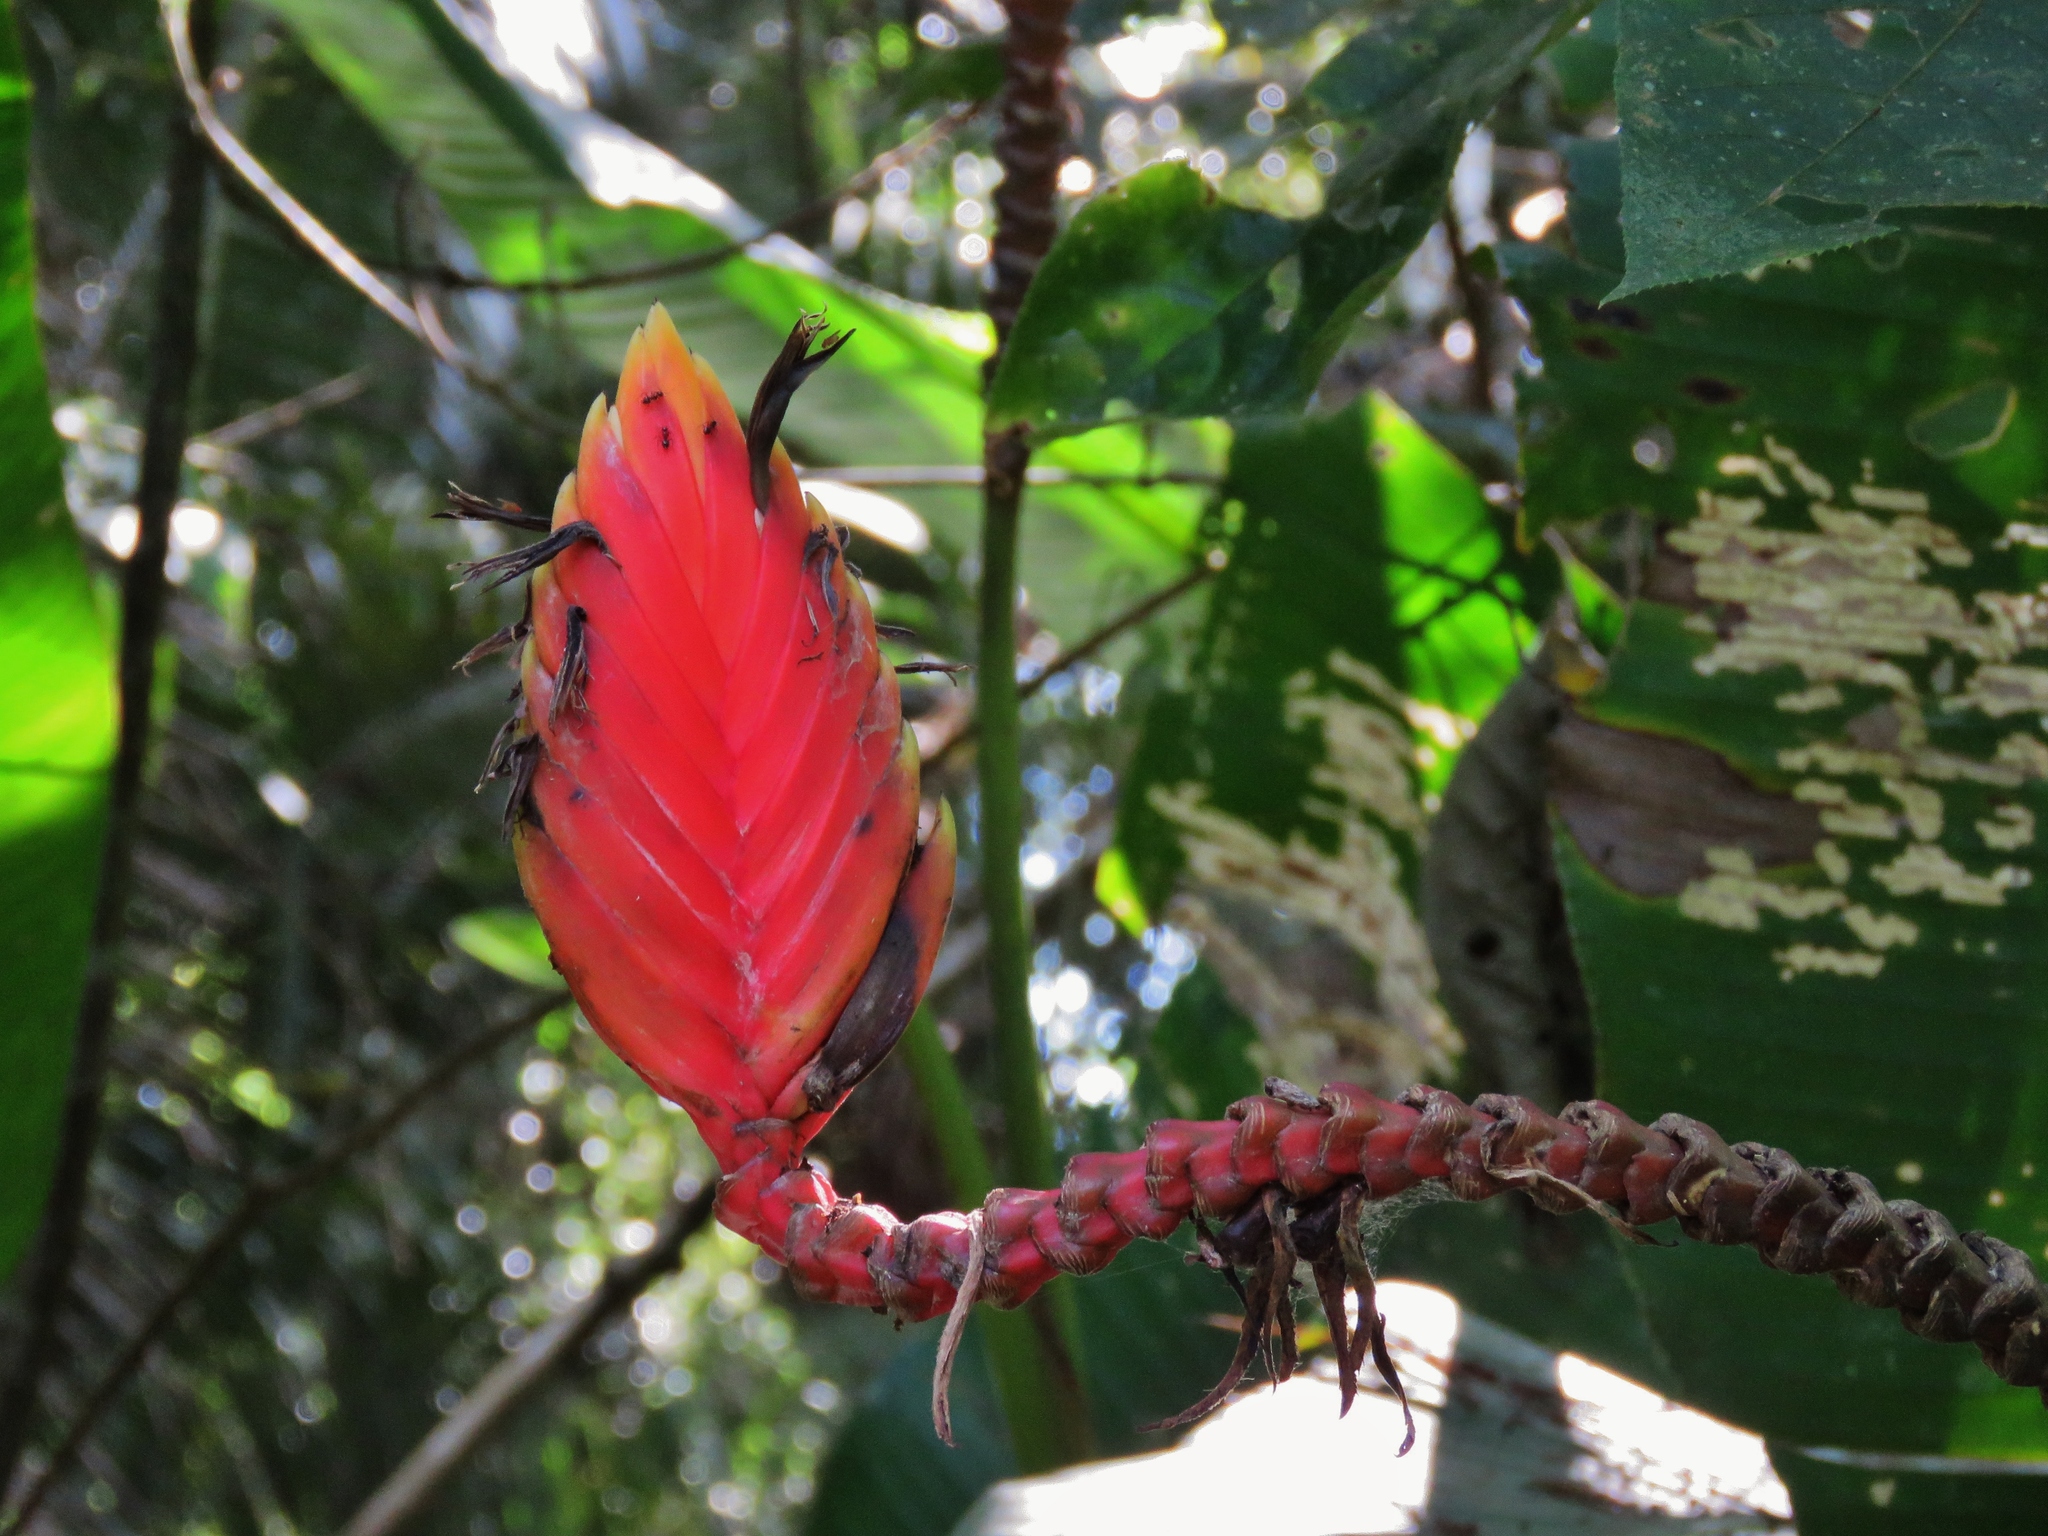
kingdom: Plantae
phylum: Tracheophyta
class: Liliopsida
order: Zingiberales
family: Heliconiaceae
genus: Heliconia
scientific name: Heliconia episcopalis
